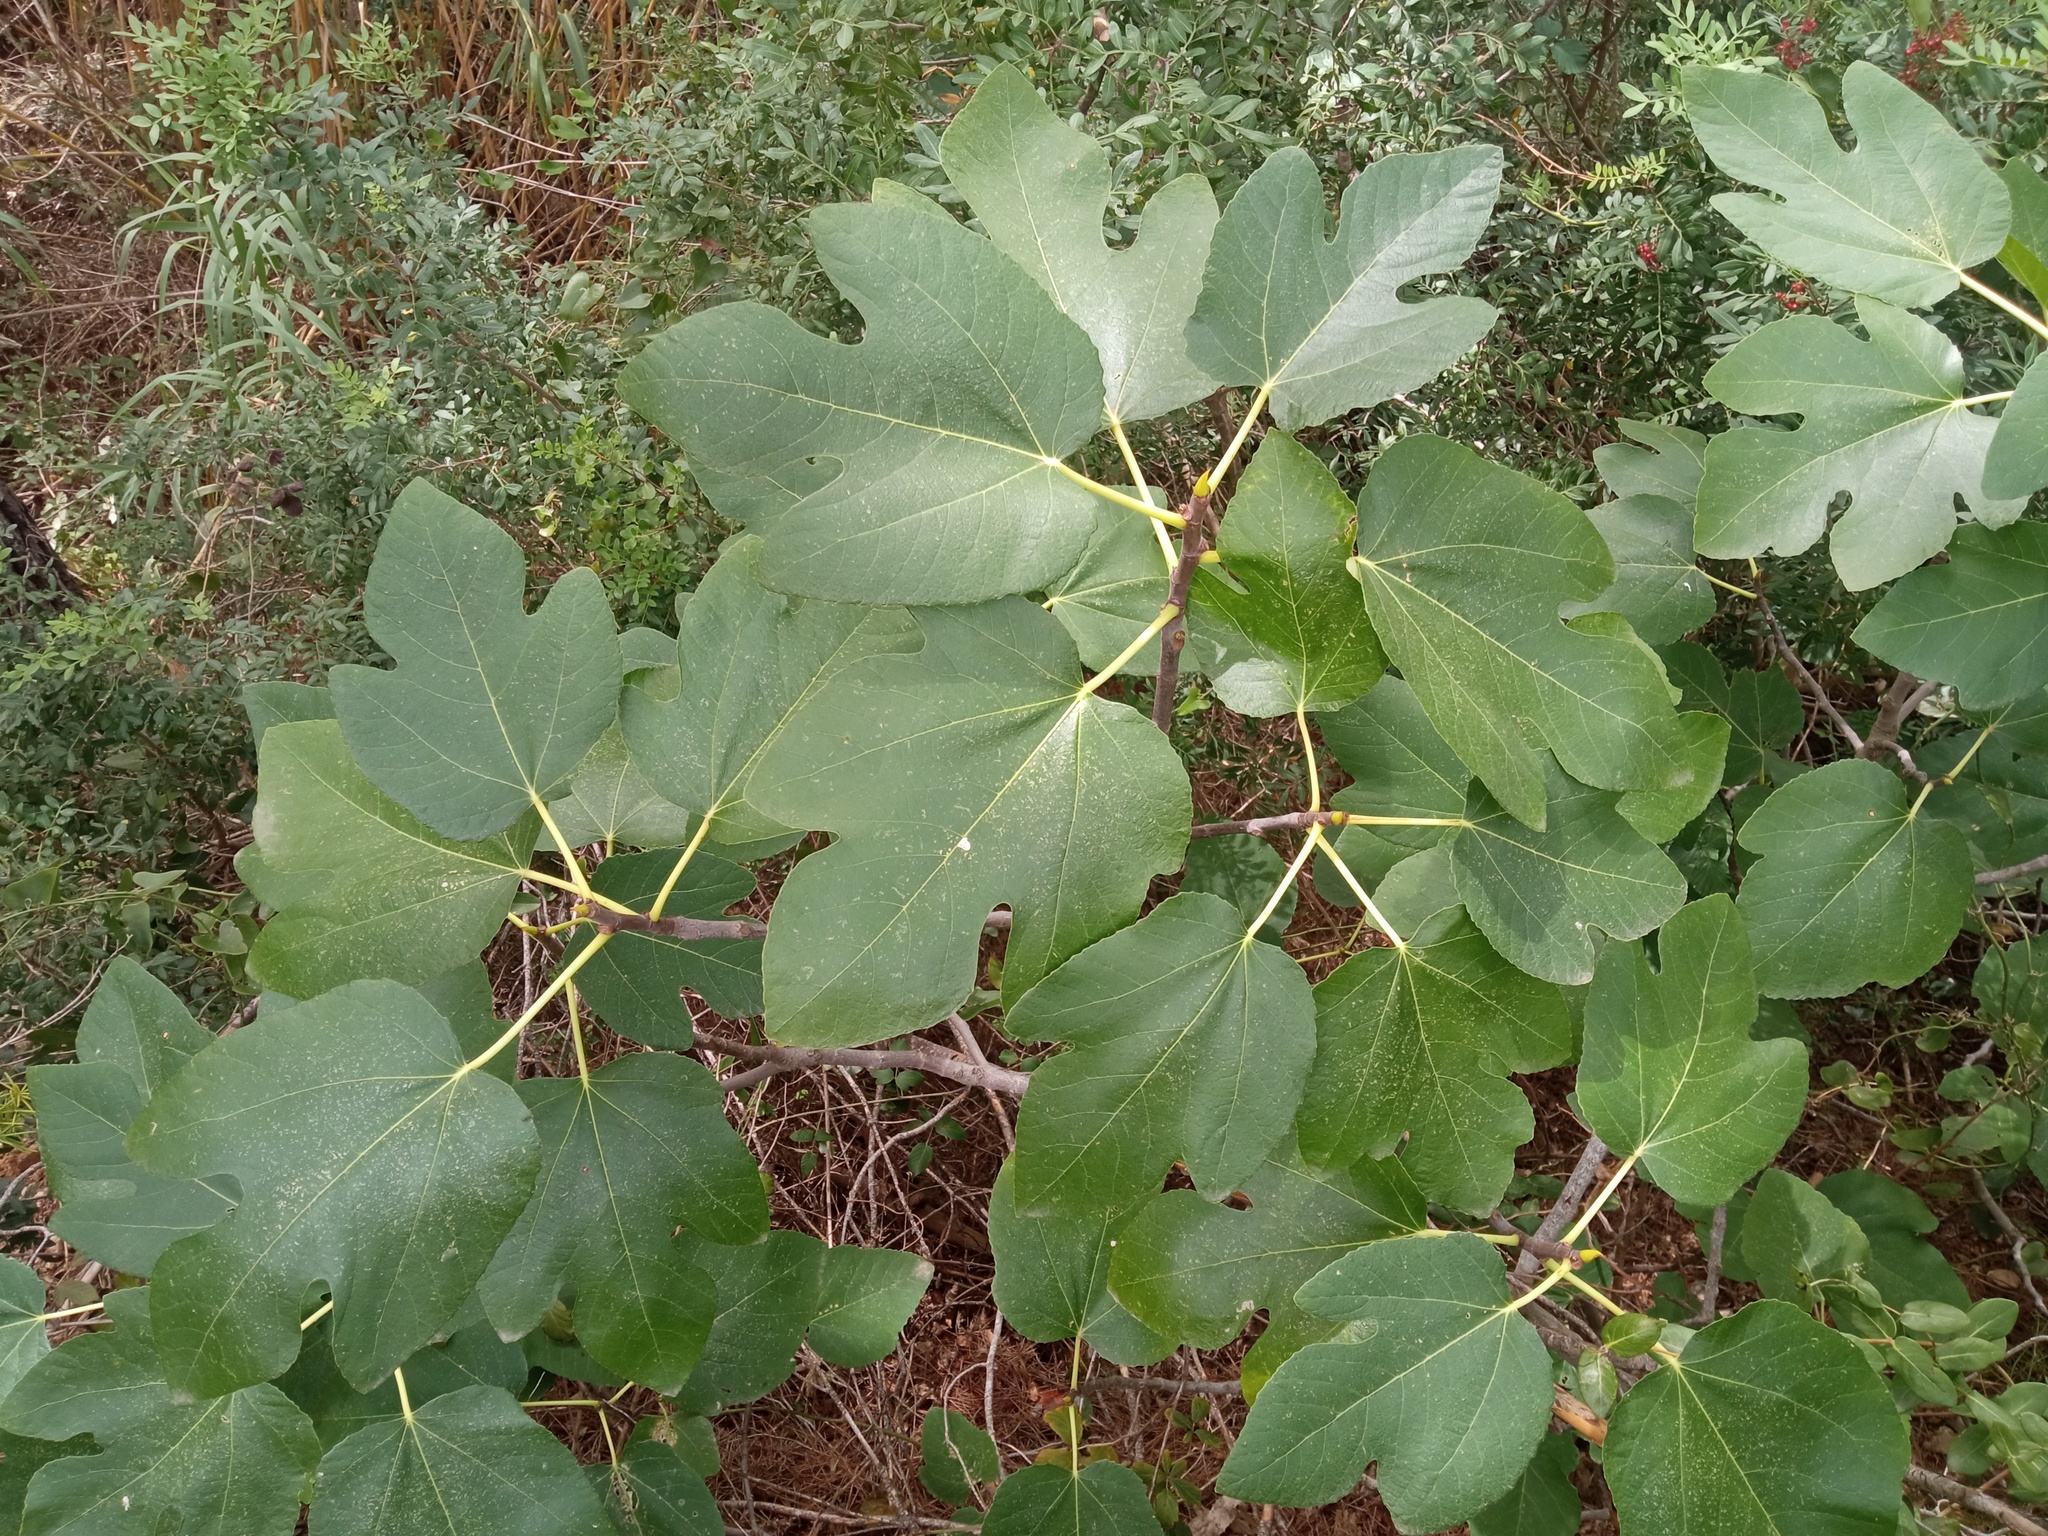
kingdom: Plantae
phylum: Tracheophyta
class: Magnoliopsida
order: Rosales
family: Moraceae
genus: Ficus
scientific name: Ficus carica
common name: Fig
